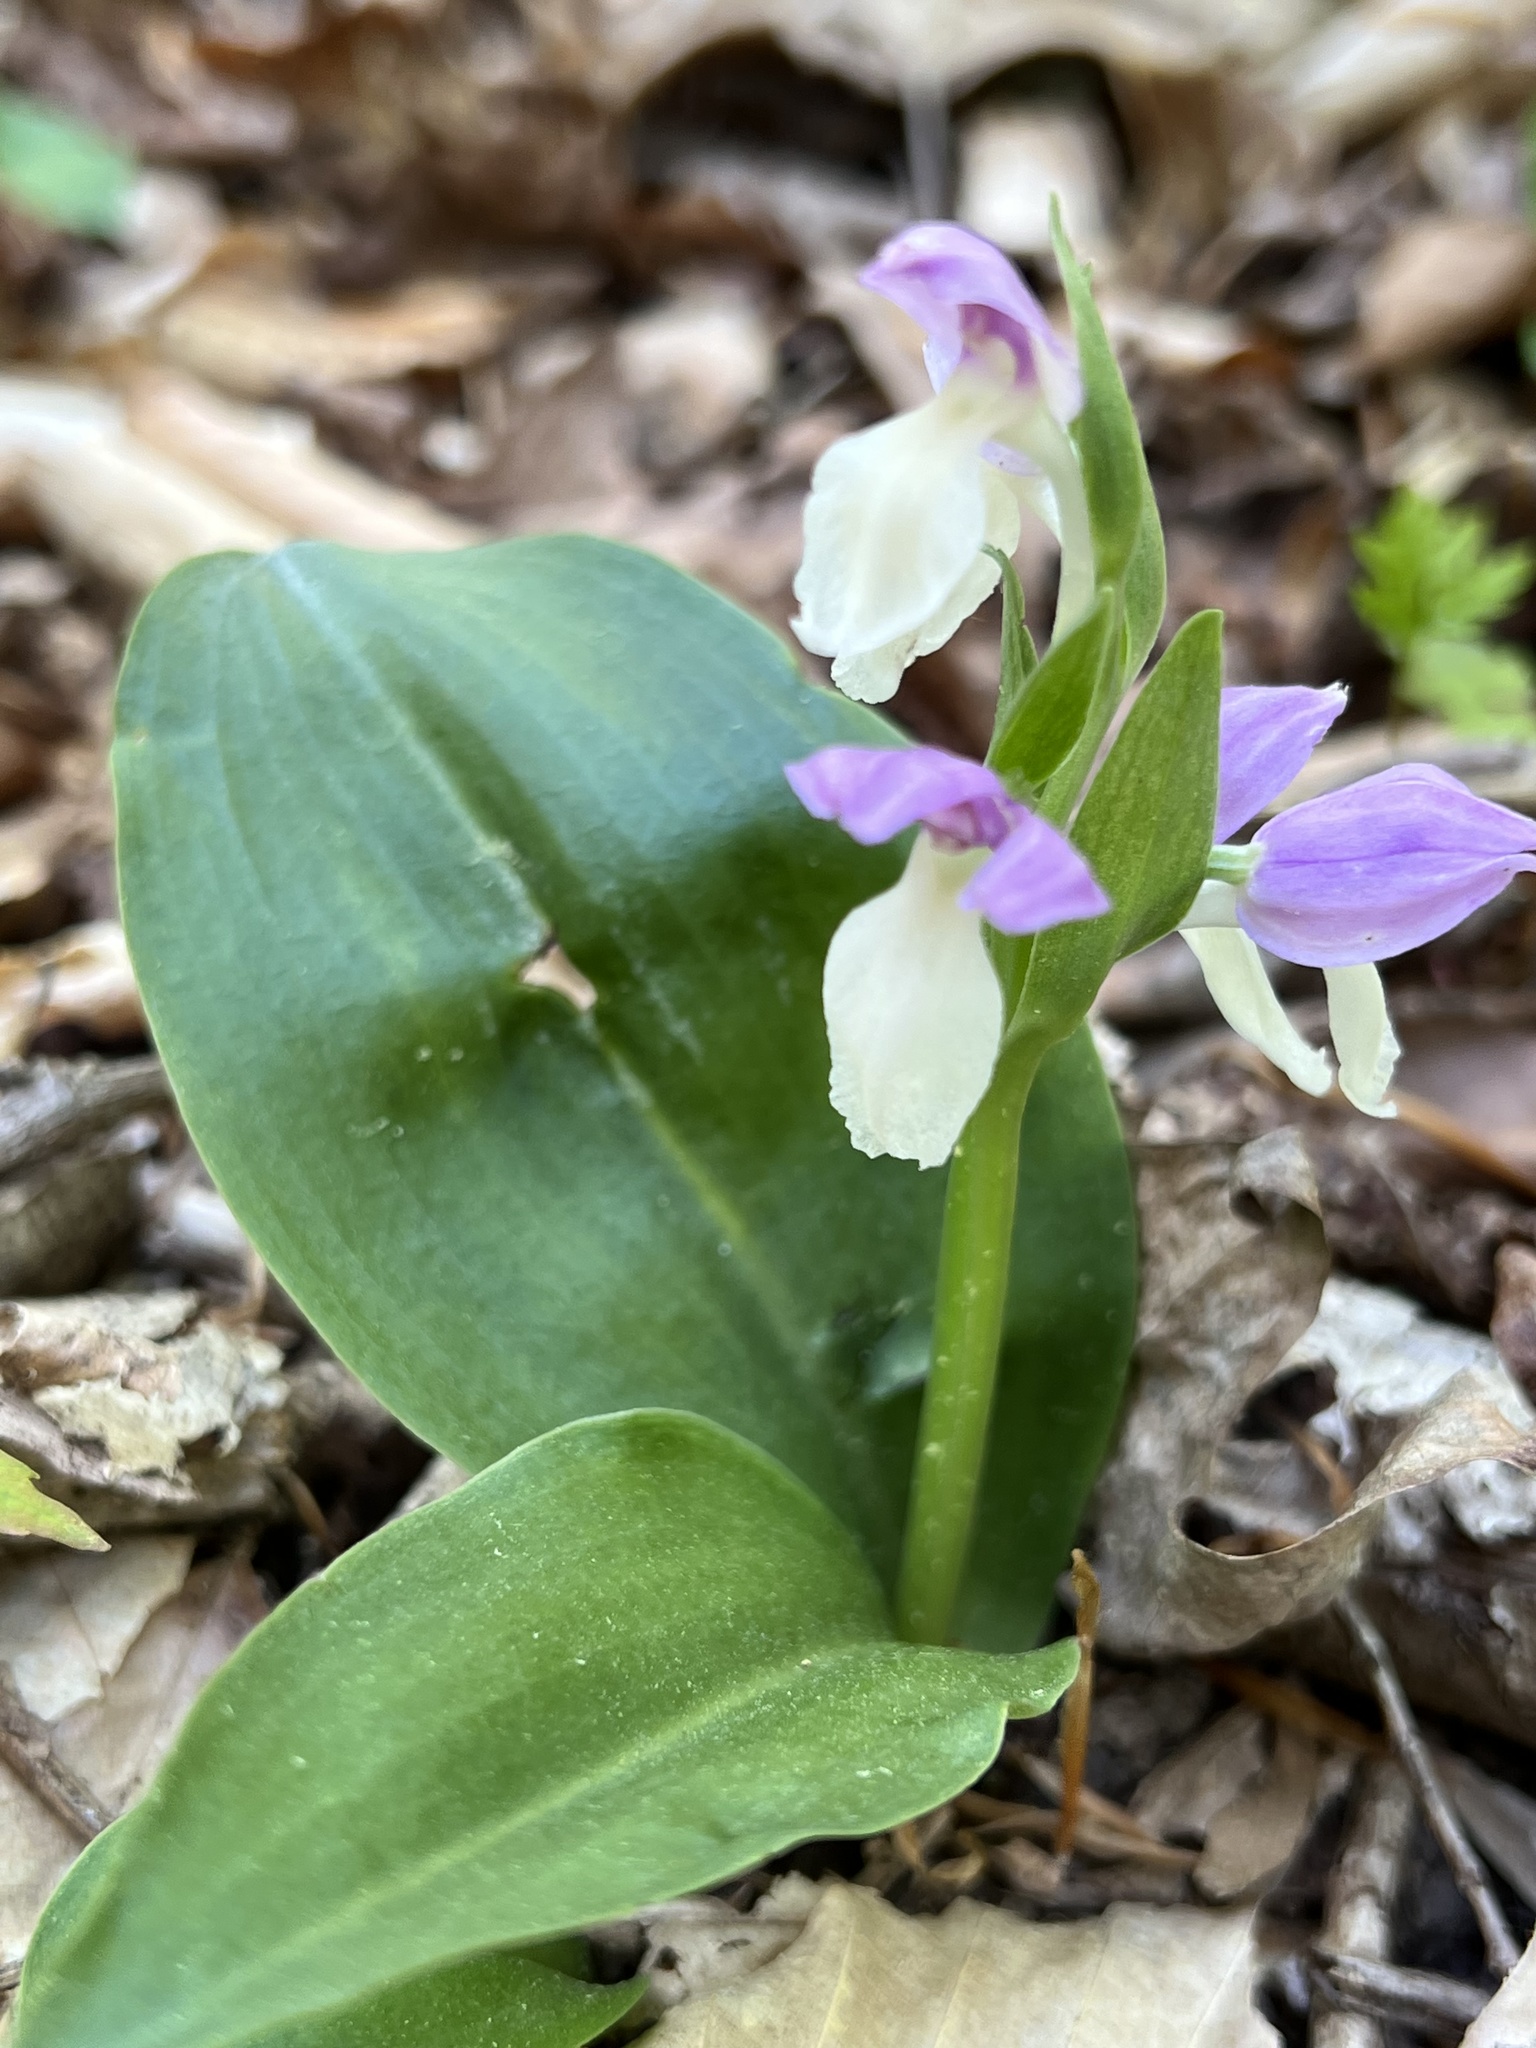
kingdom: Plantae
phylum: Tracheophyta
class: Liliopsida
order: Asparagales
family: Orchidaceae
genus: Galearis
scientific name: Galearis spectabilis
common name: Purple-hooded orchis
